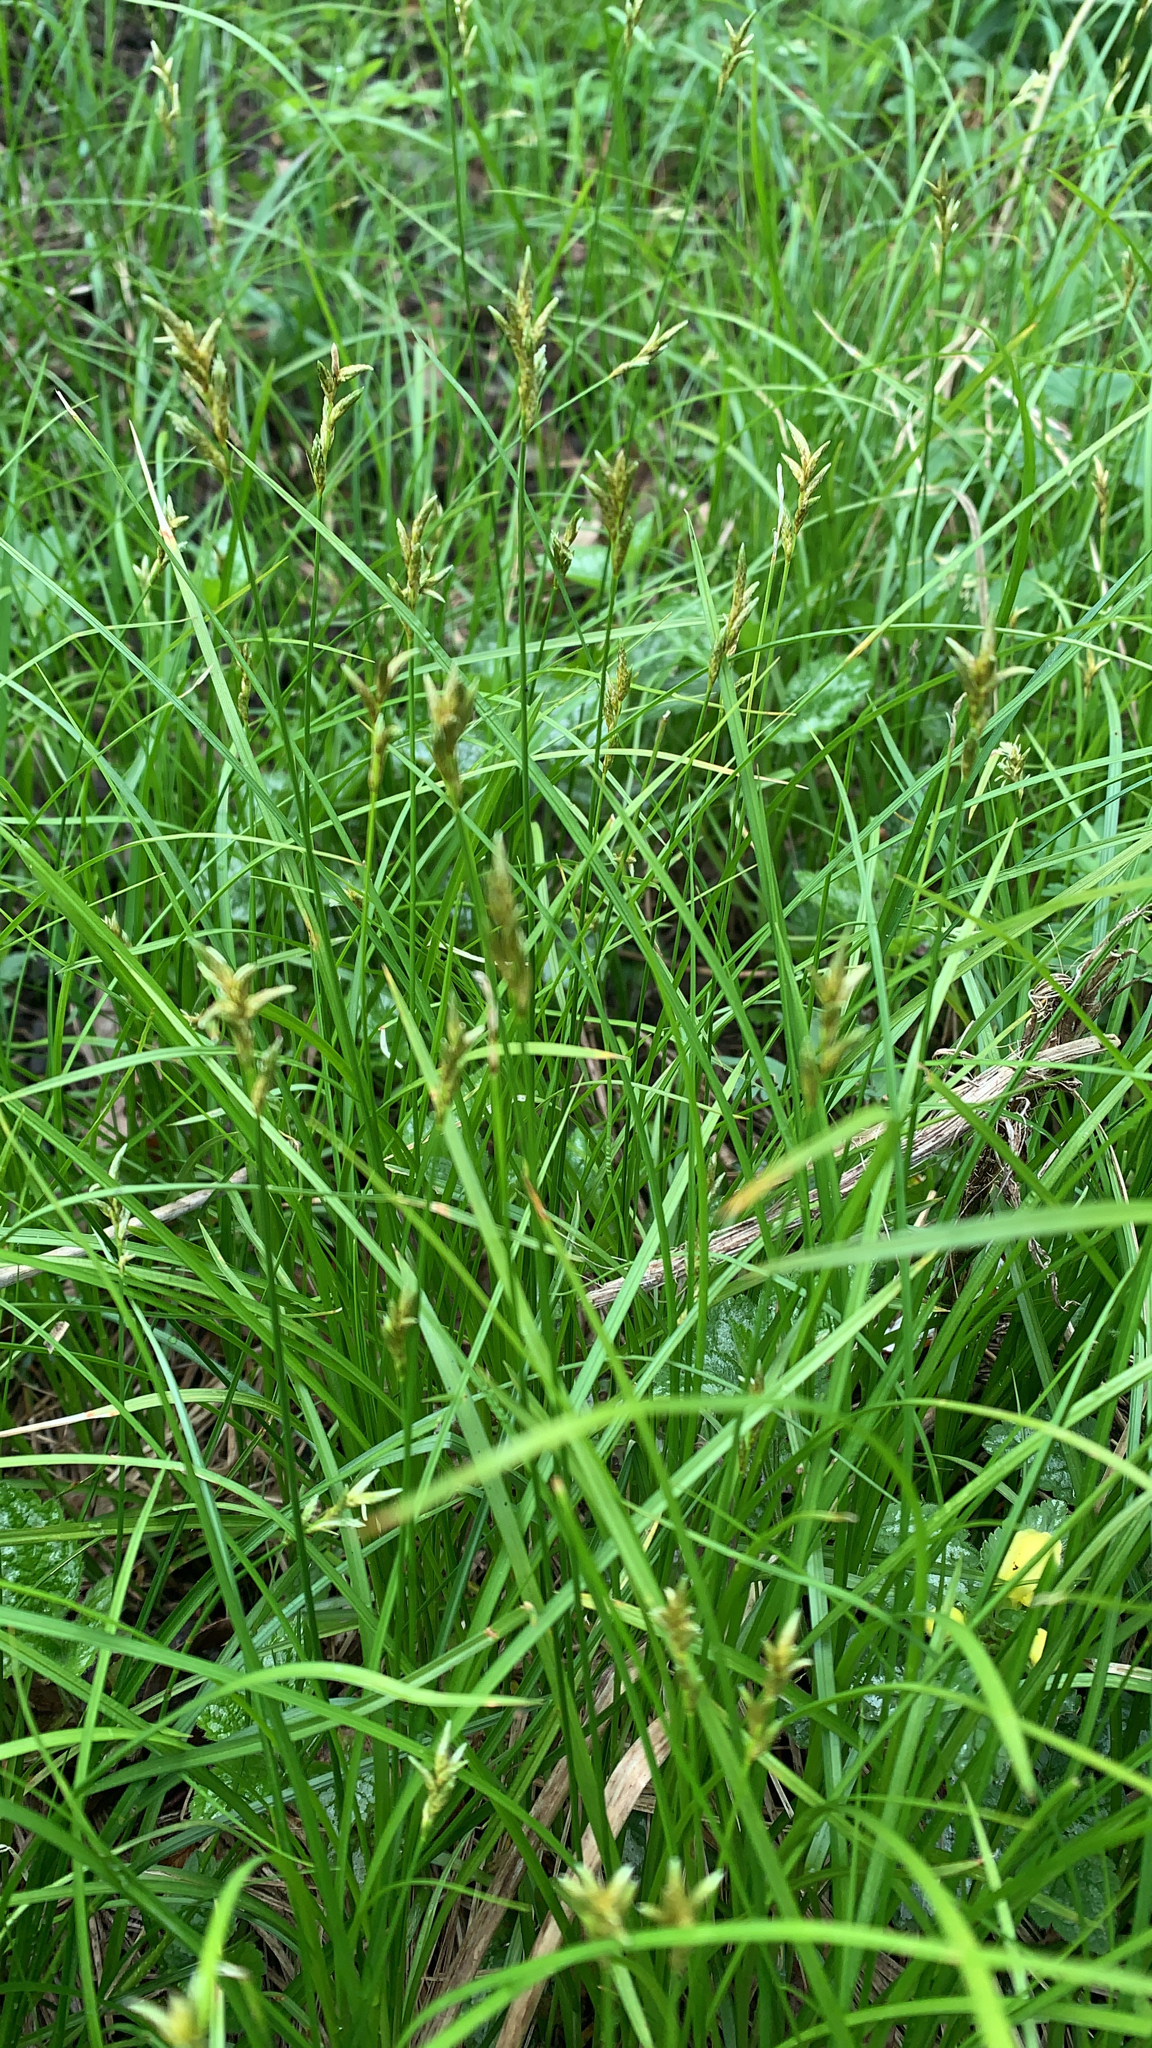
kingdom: Plantae
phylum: Tracheophyta
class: Liliopsida
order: Poales
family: Cyperaceae
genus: Carex
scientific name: Carex brizoides
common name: Quaking-grass sedge
